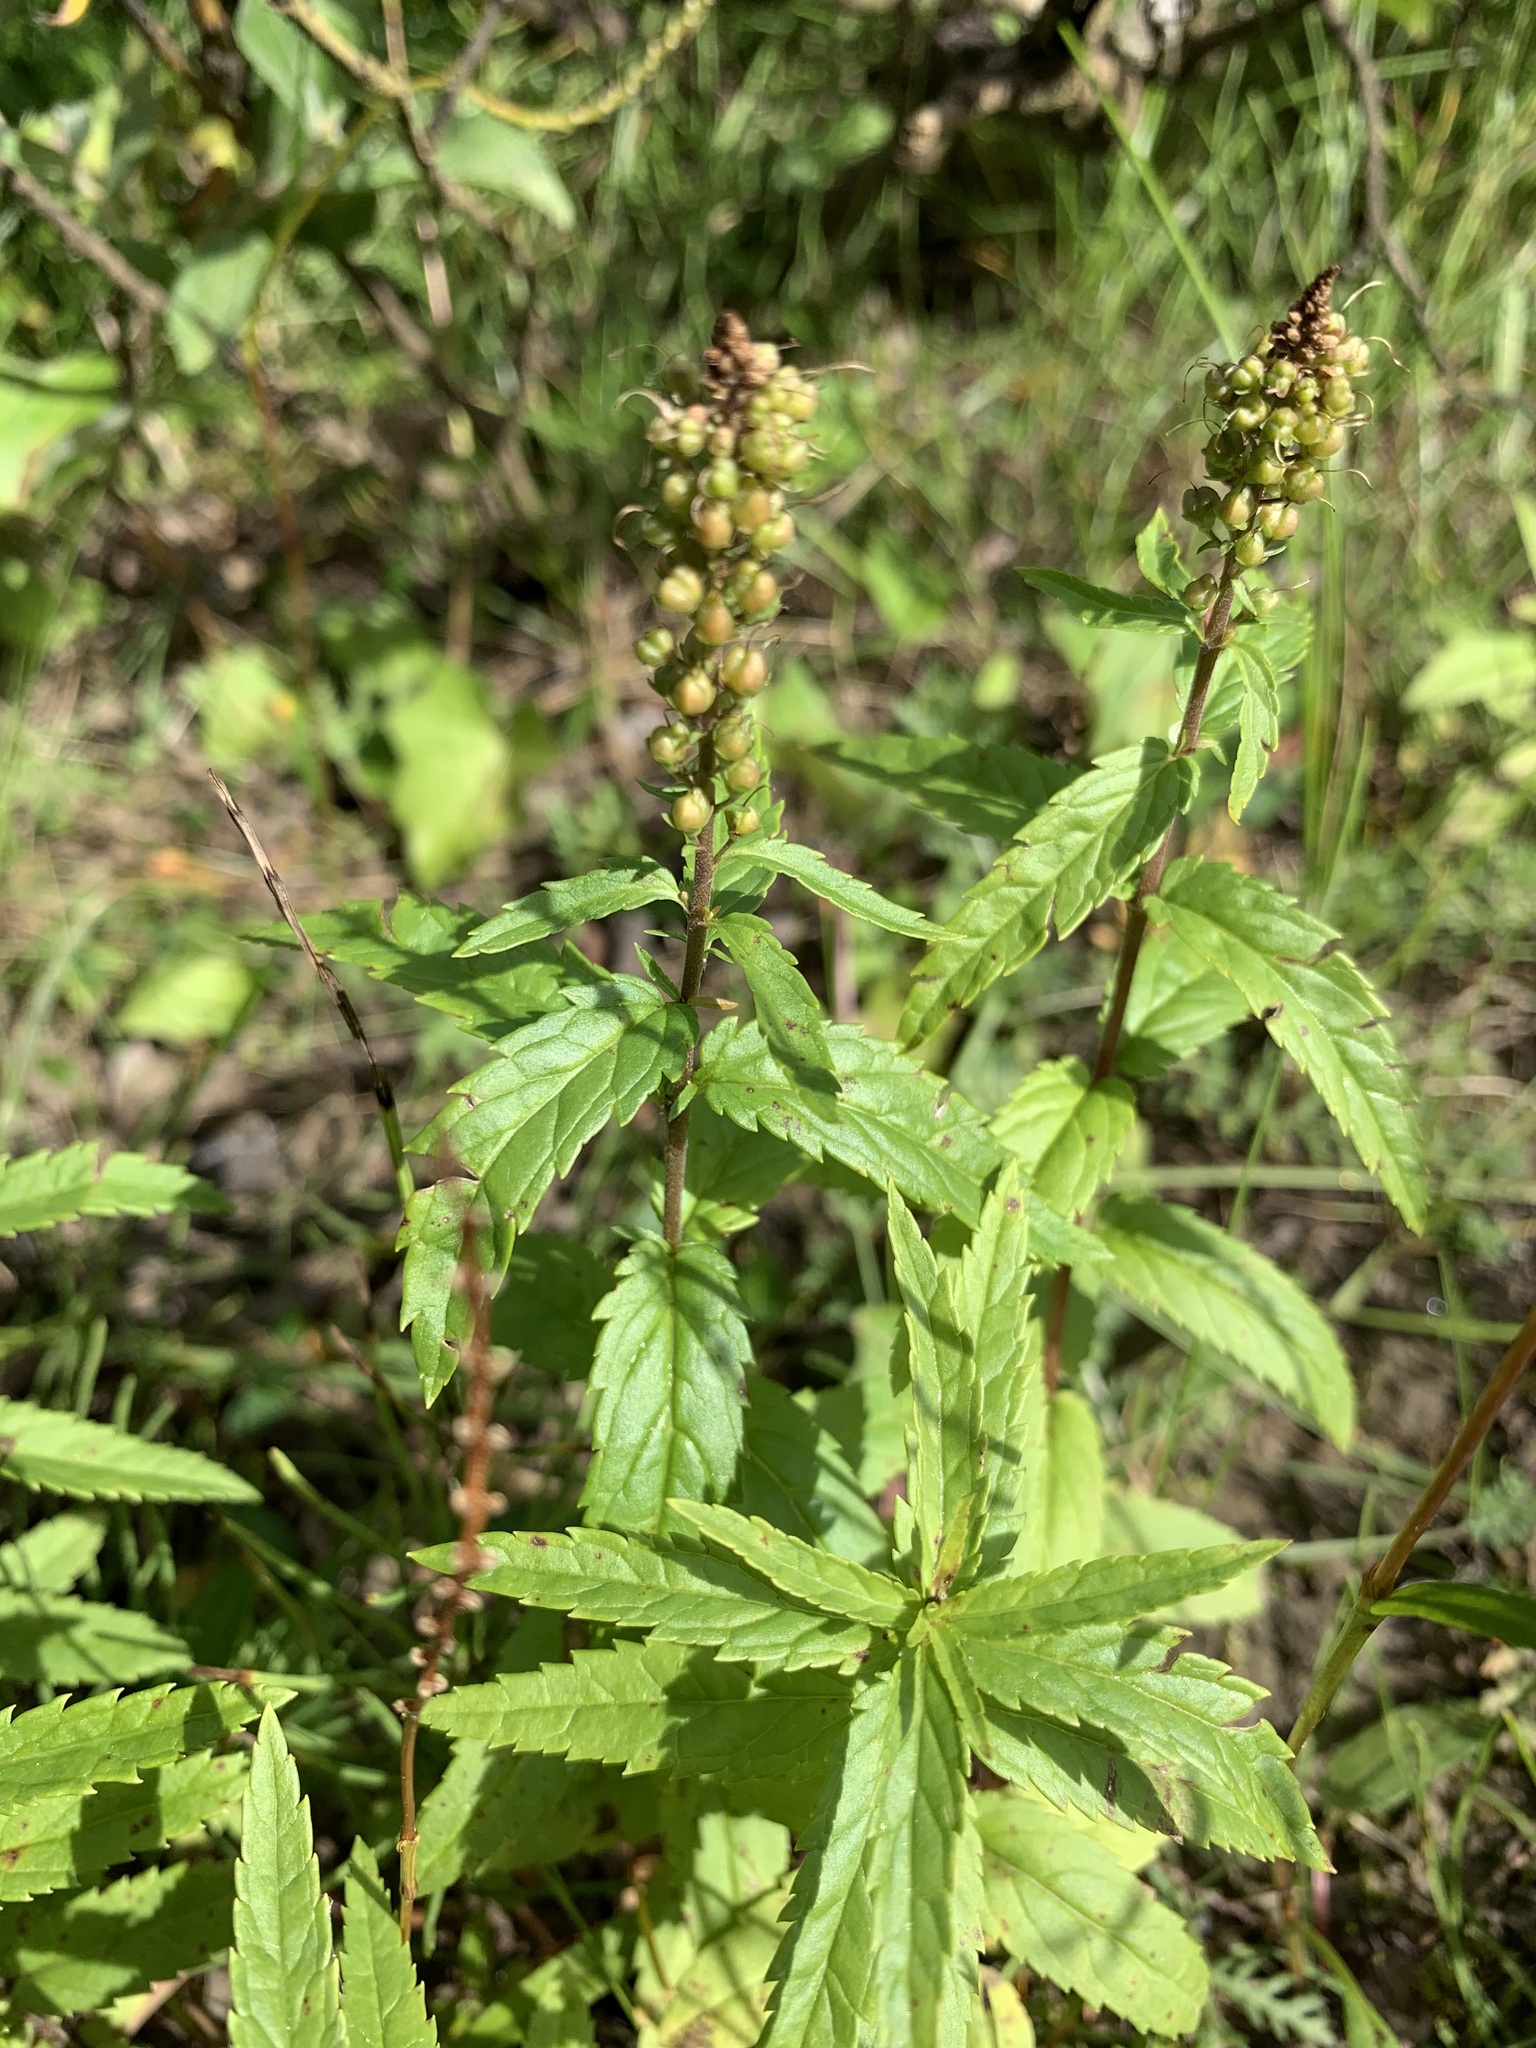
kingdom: Plantae
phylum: Tracheophyta
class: Magnoliopsida
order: Lamiales
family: Plantaginaceae
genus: Veronica
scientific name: Veronica longifolia
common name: Garden speedwell
